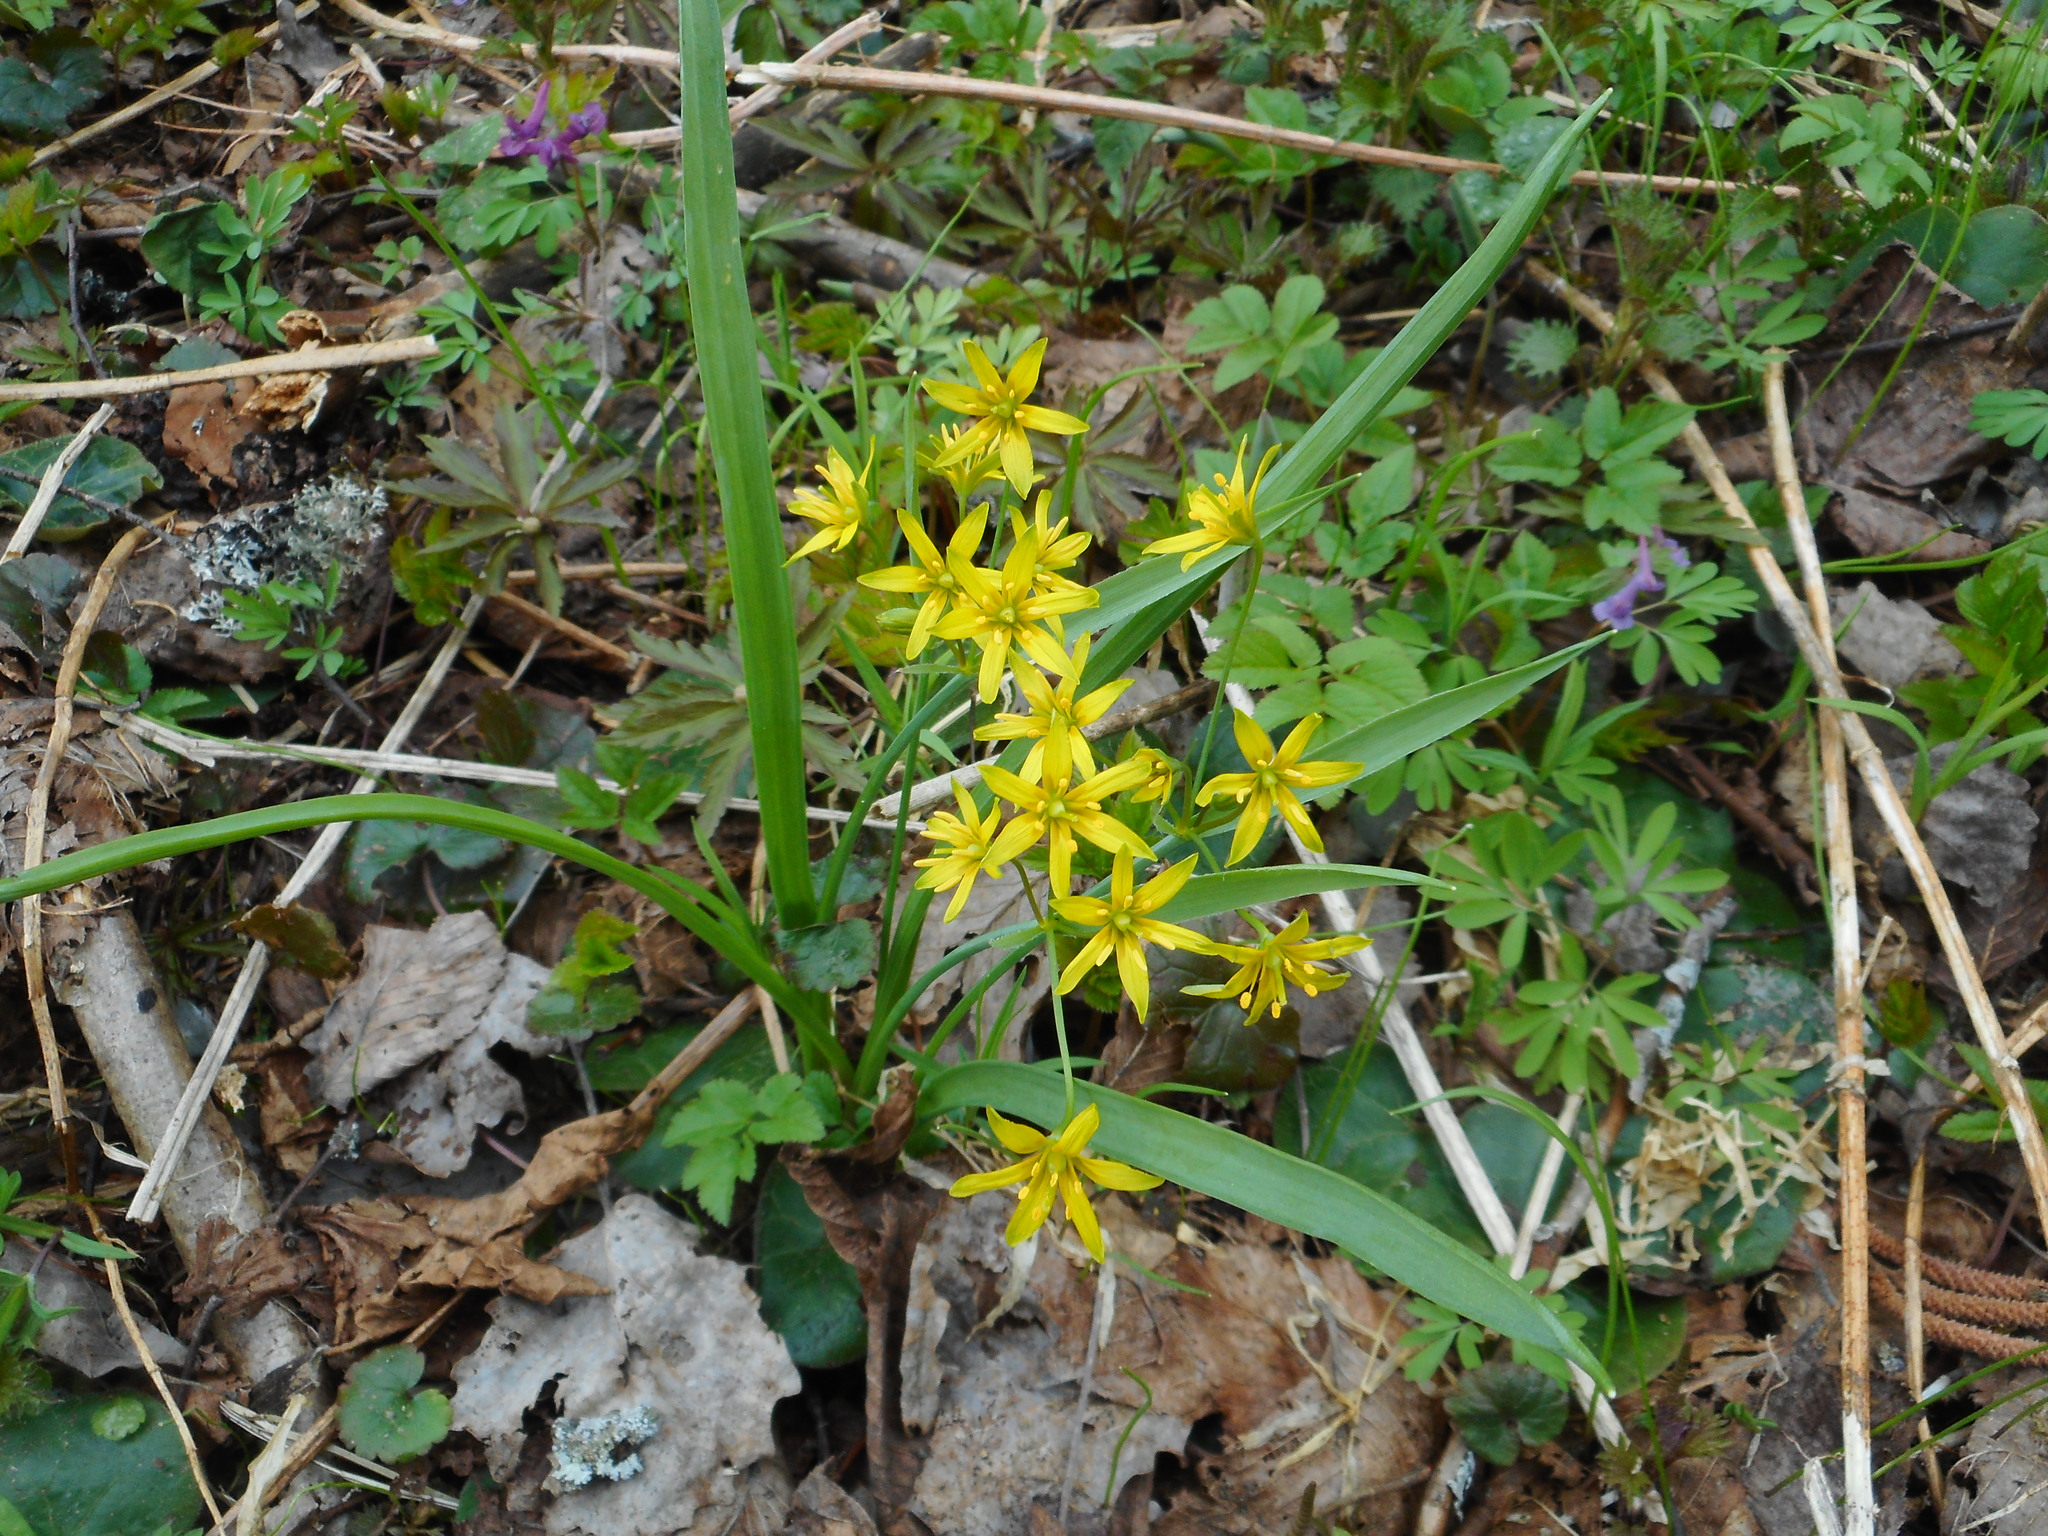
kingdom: Plantae
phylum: Tracheophyta
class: Liliopsida
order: Liliales
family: Liliaceae
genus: Gagea
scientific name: Gagea lutea
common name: Yellow star-of-bethlehem
